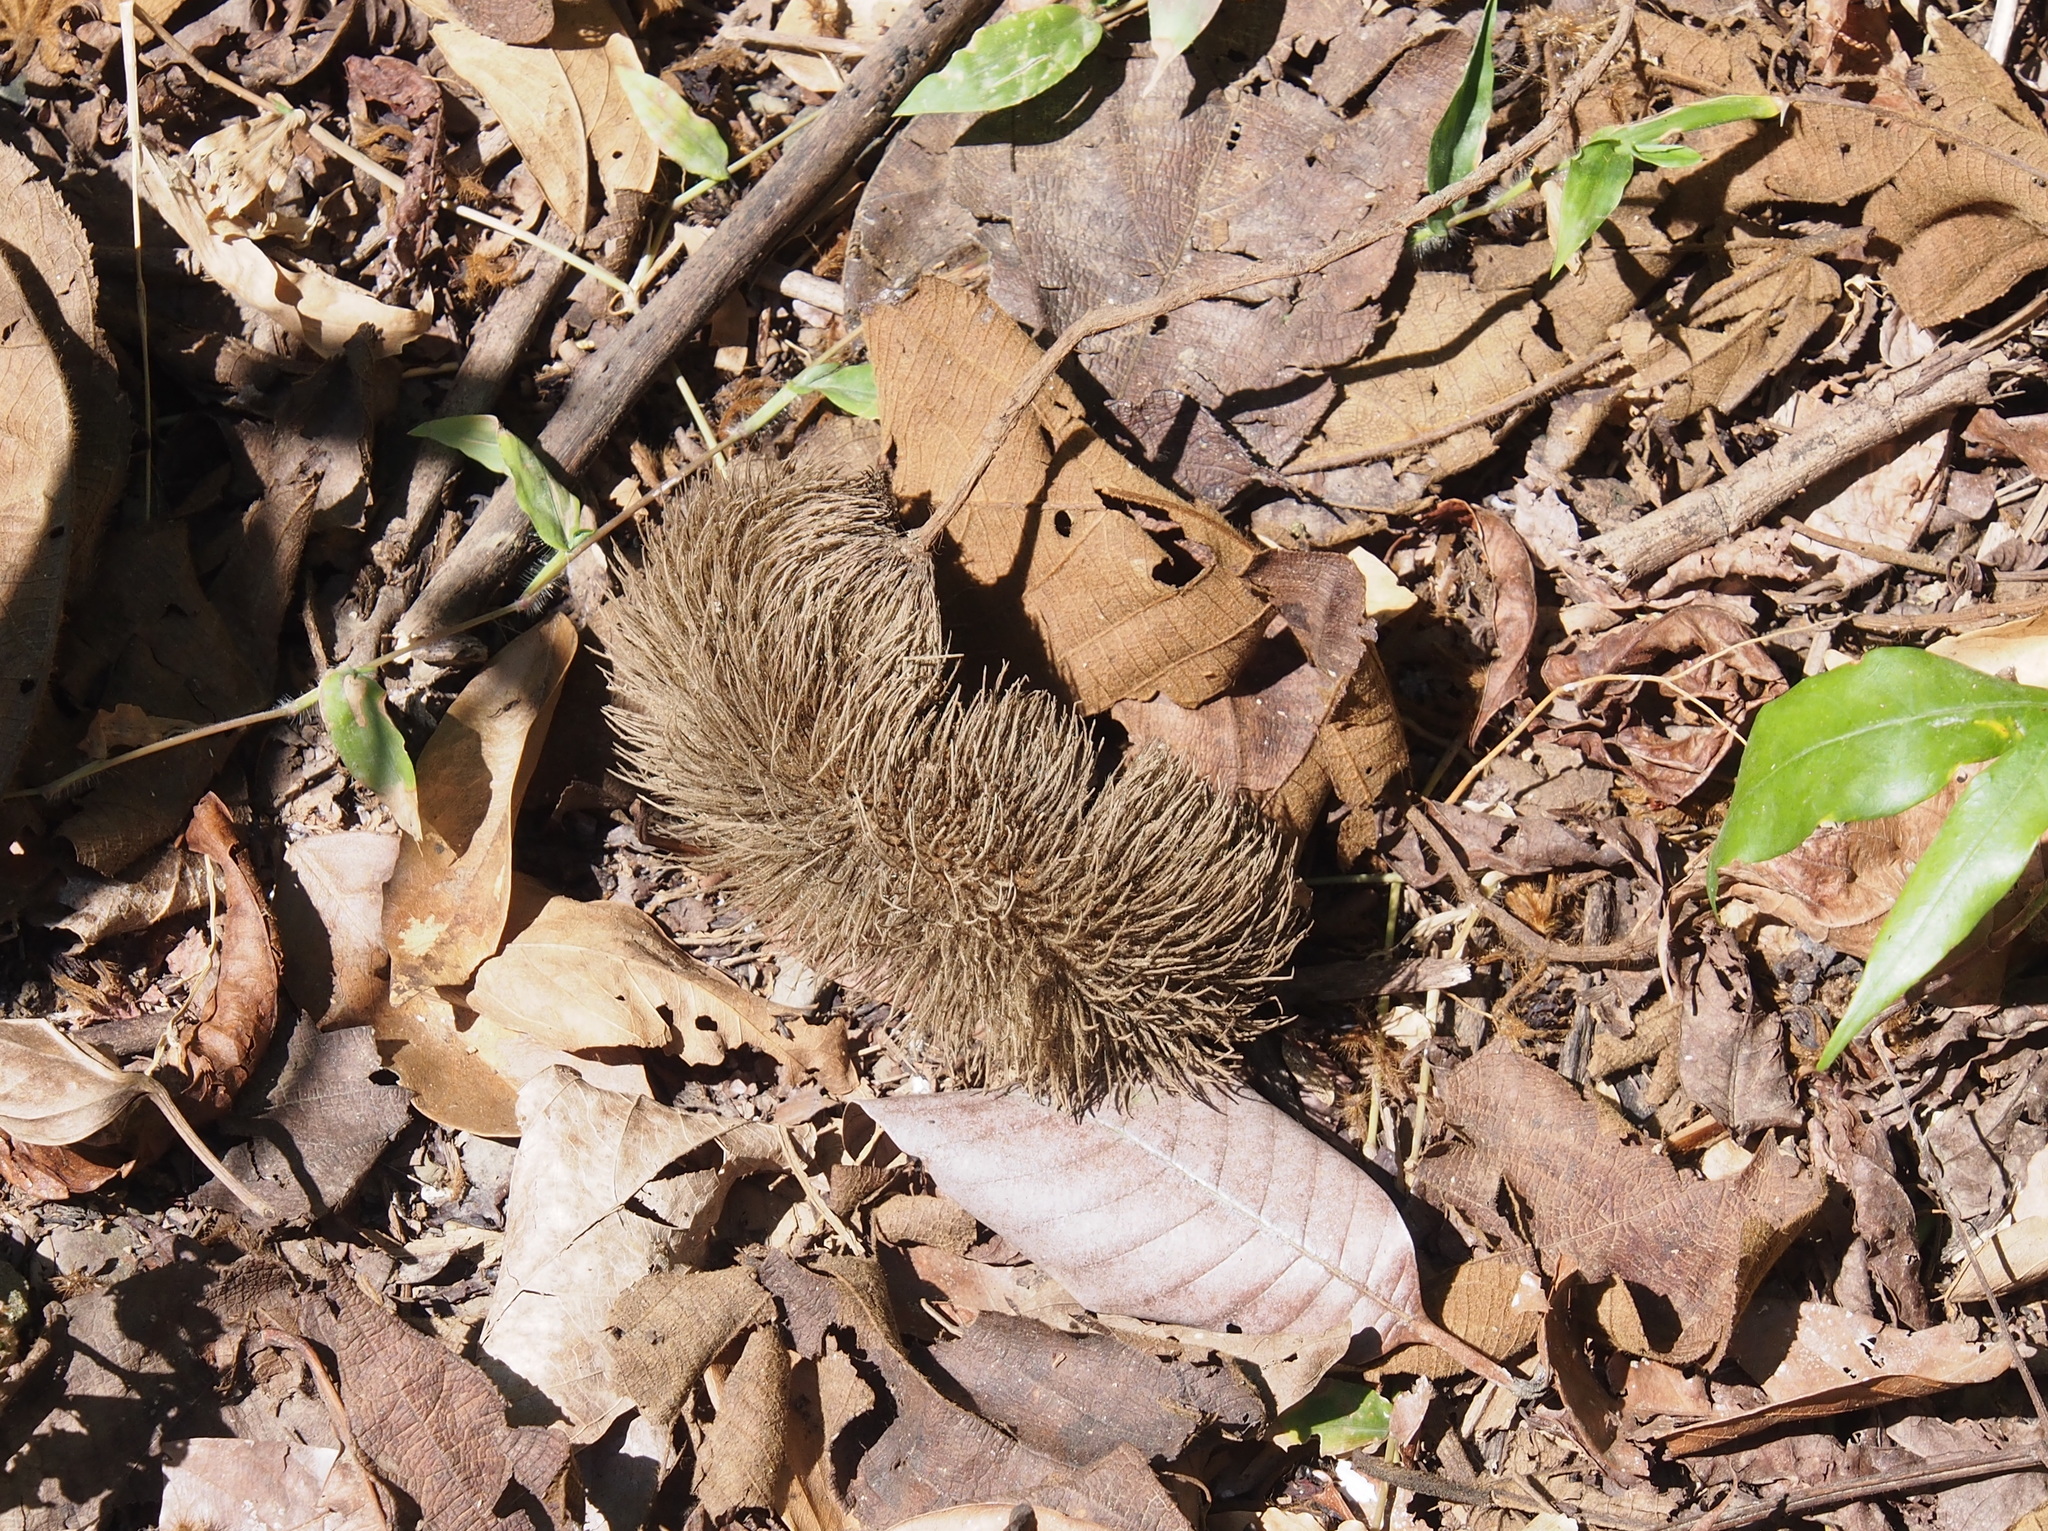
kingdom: Plantae
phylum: Tracheophyta
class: Magnoliopsida
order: Malvales
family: Malvaceae
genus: Apeiba
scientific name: Apeiba tibourbou
